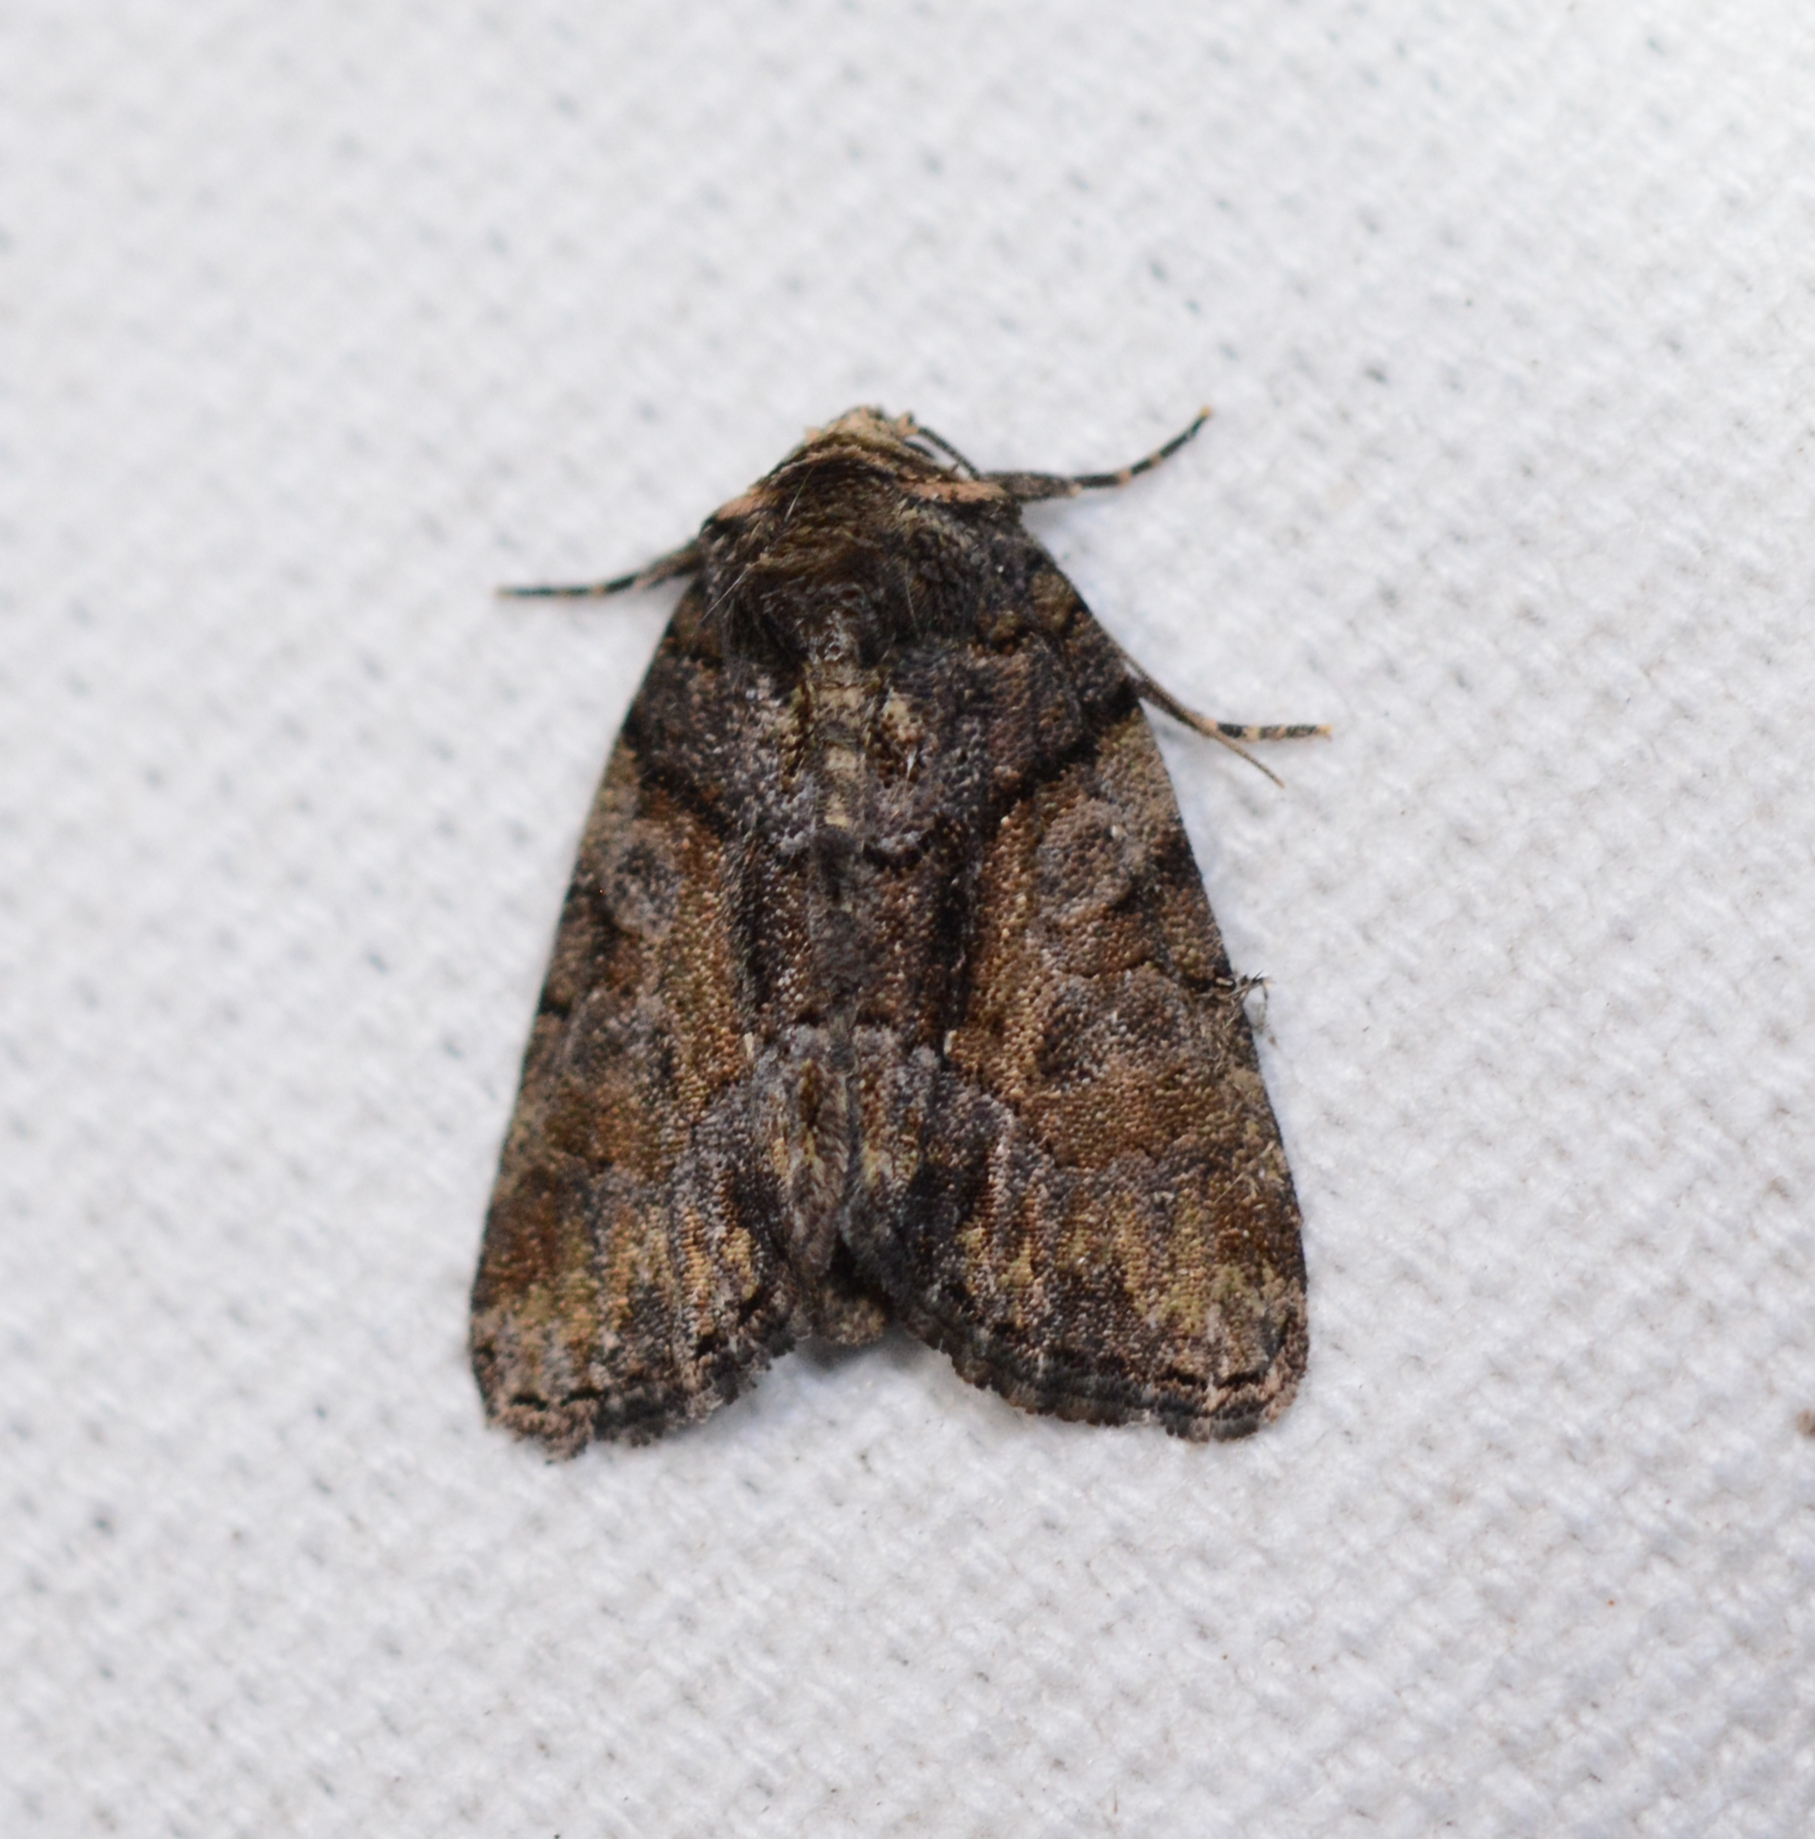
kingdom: Animalia
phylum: Arthropoda
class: Insecta
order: Lepidoptera
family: Noctuidae
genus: Chytonix
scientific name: Chytonix palliatricula
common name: Cloaked marvel
